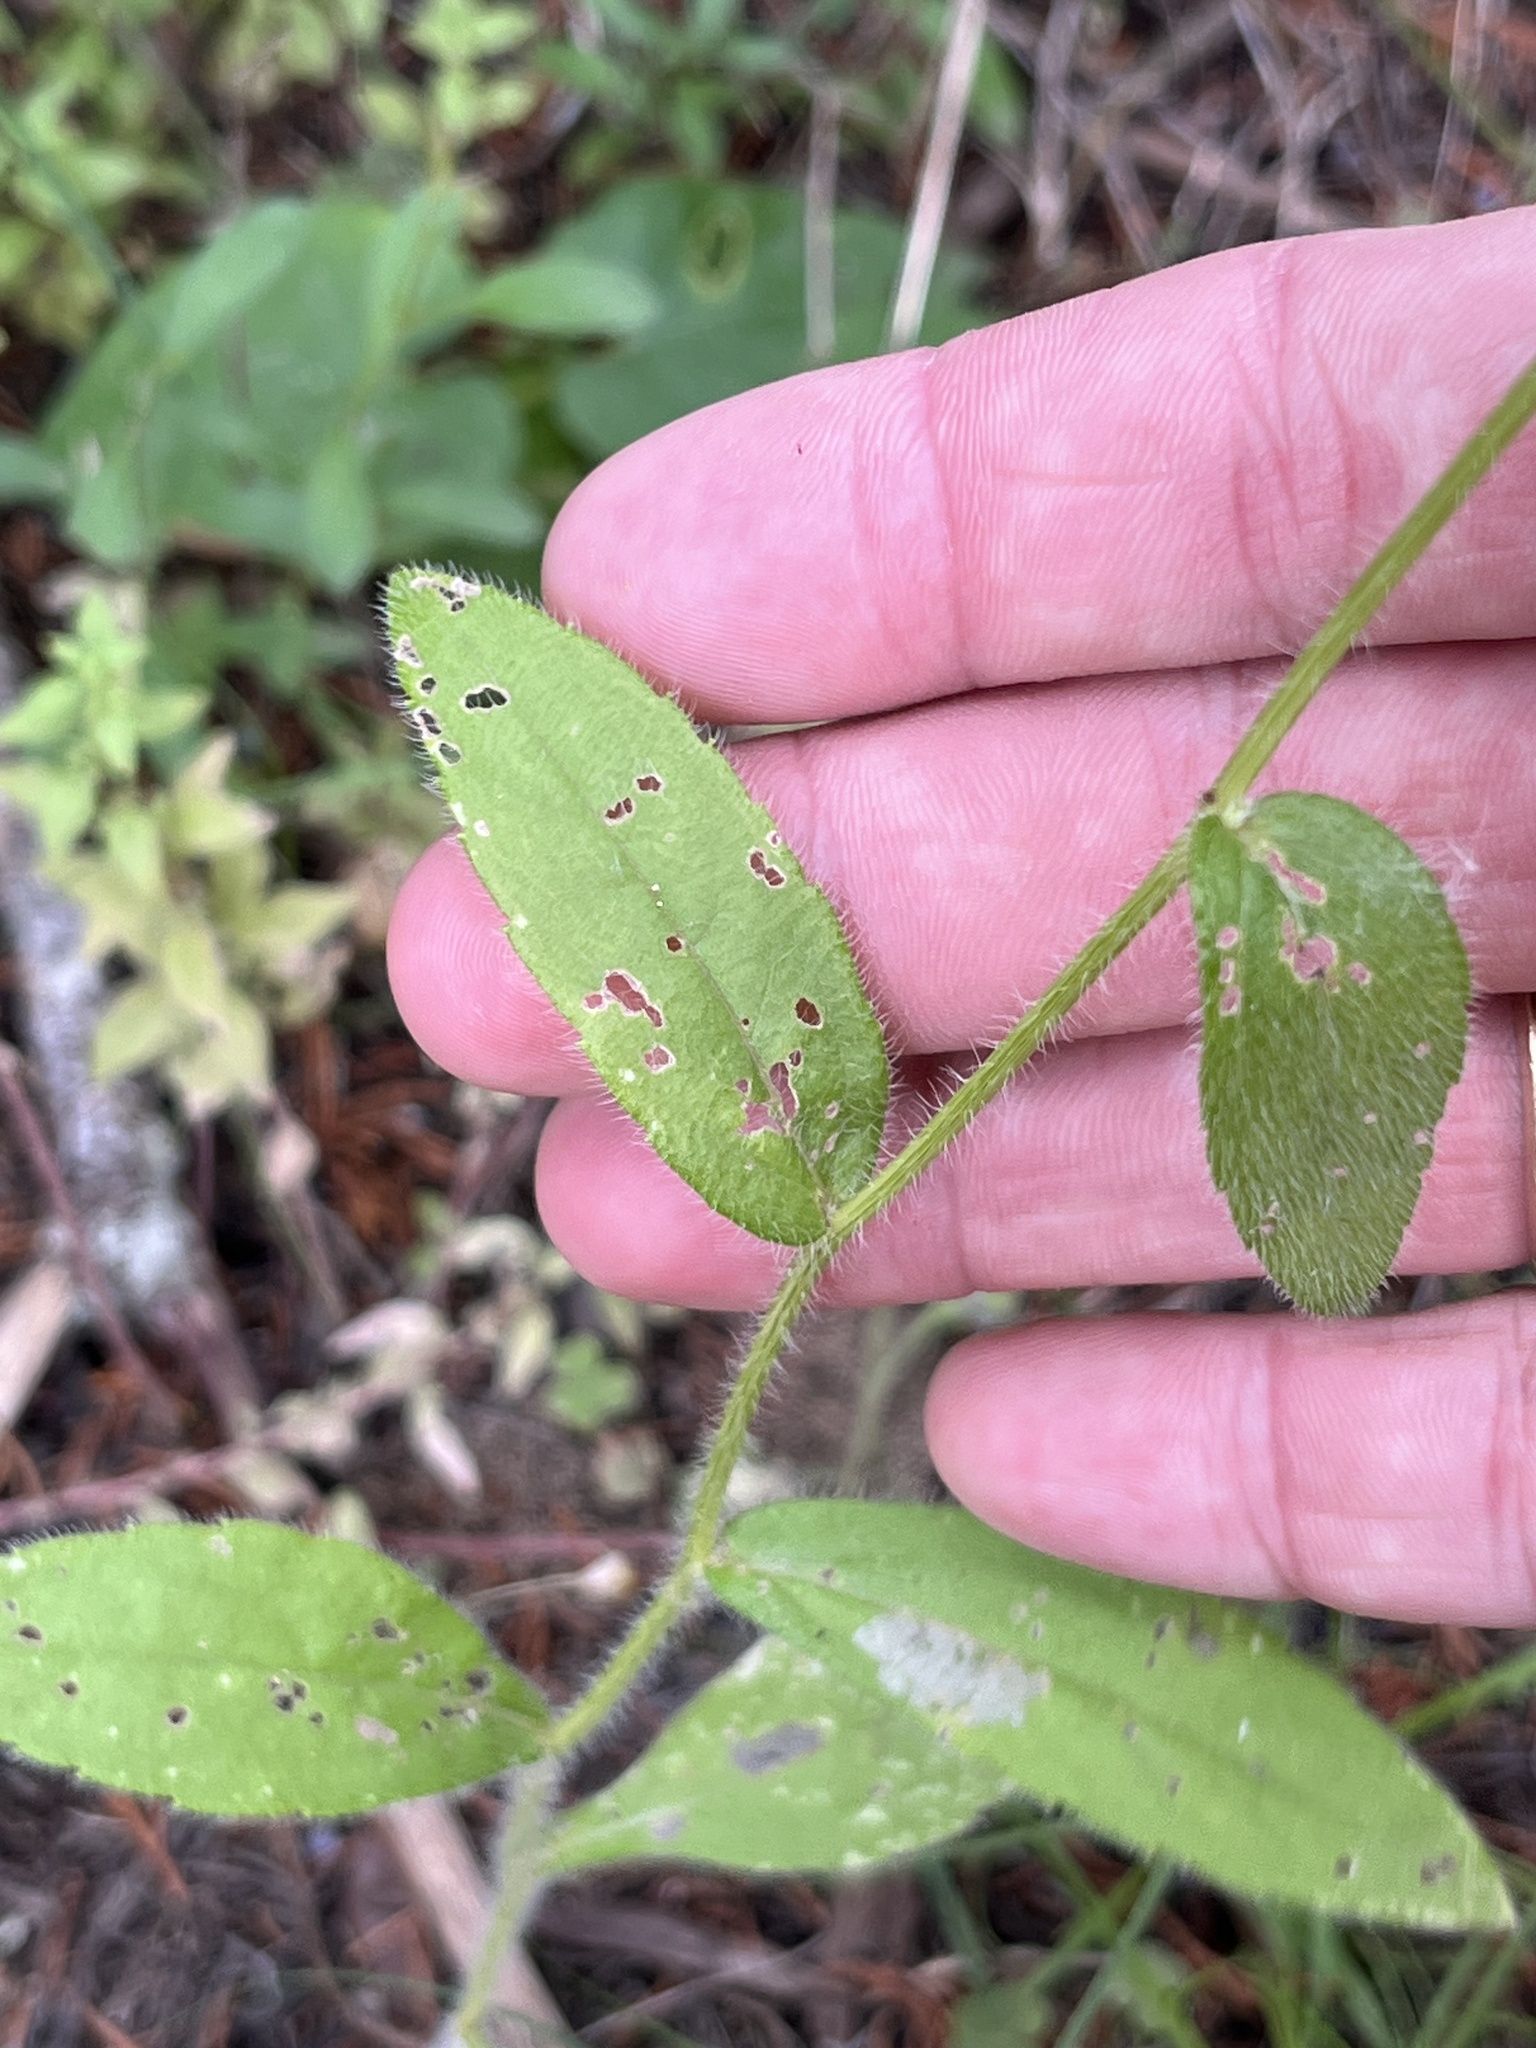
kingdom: Plantae
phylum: Tracheophyta
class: Magnoliopsida
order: Asterales
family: Asteraceae
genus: Rudbeckia
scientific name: Rudbeckia hirta
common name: Black-eyed-susan
